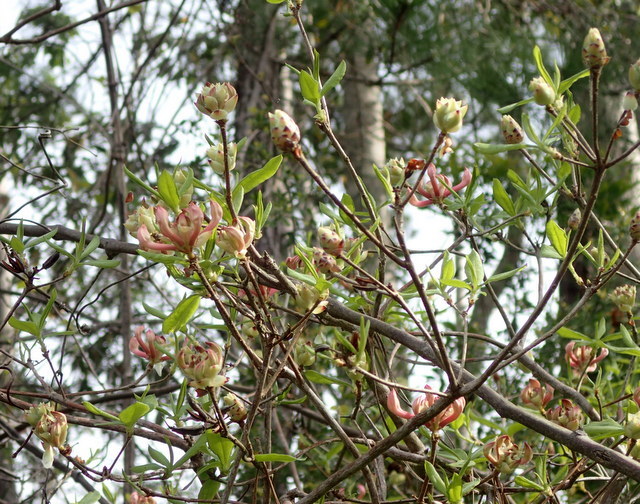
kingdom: Plantae
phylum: Tracheophyta
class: Magnoliopsida
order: Ericales
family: Ericaceae
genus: Rhododendron
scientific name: Rhododendron canescens
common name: Mountain azalea
